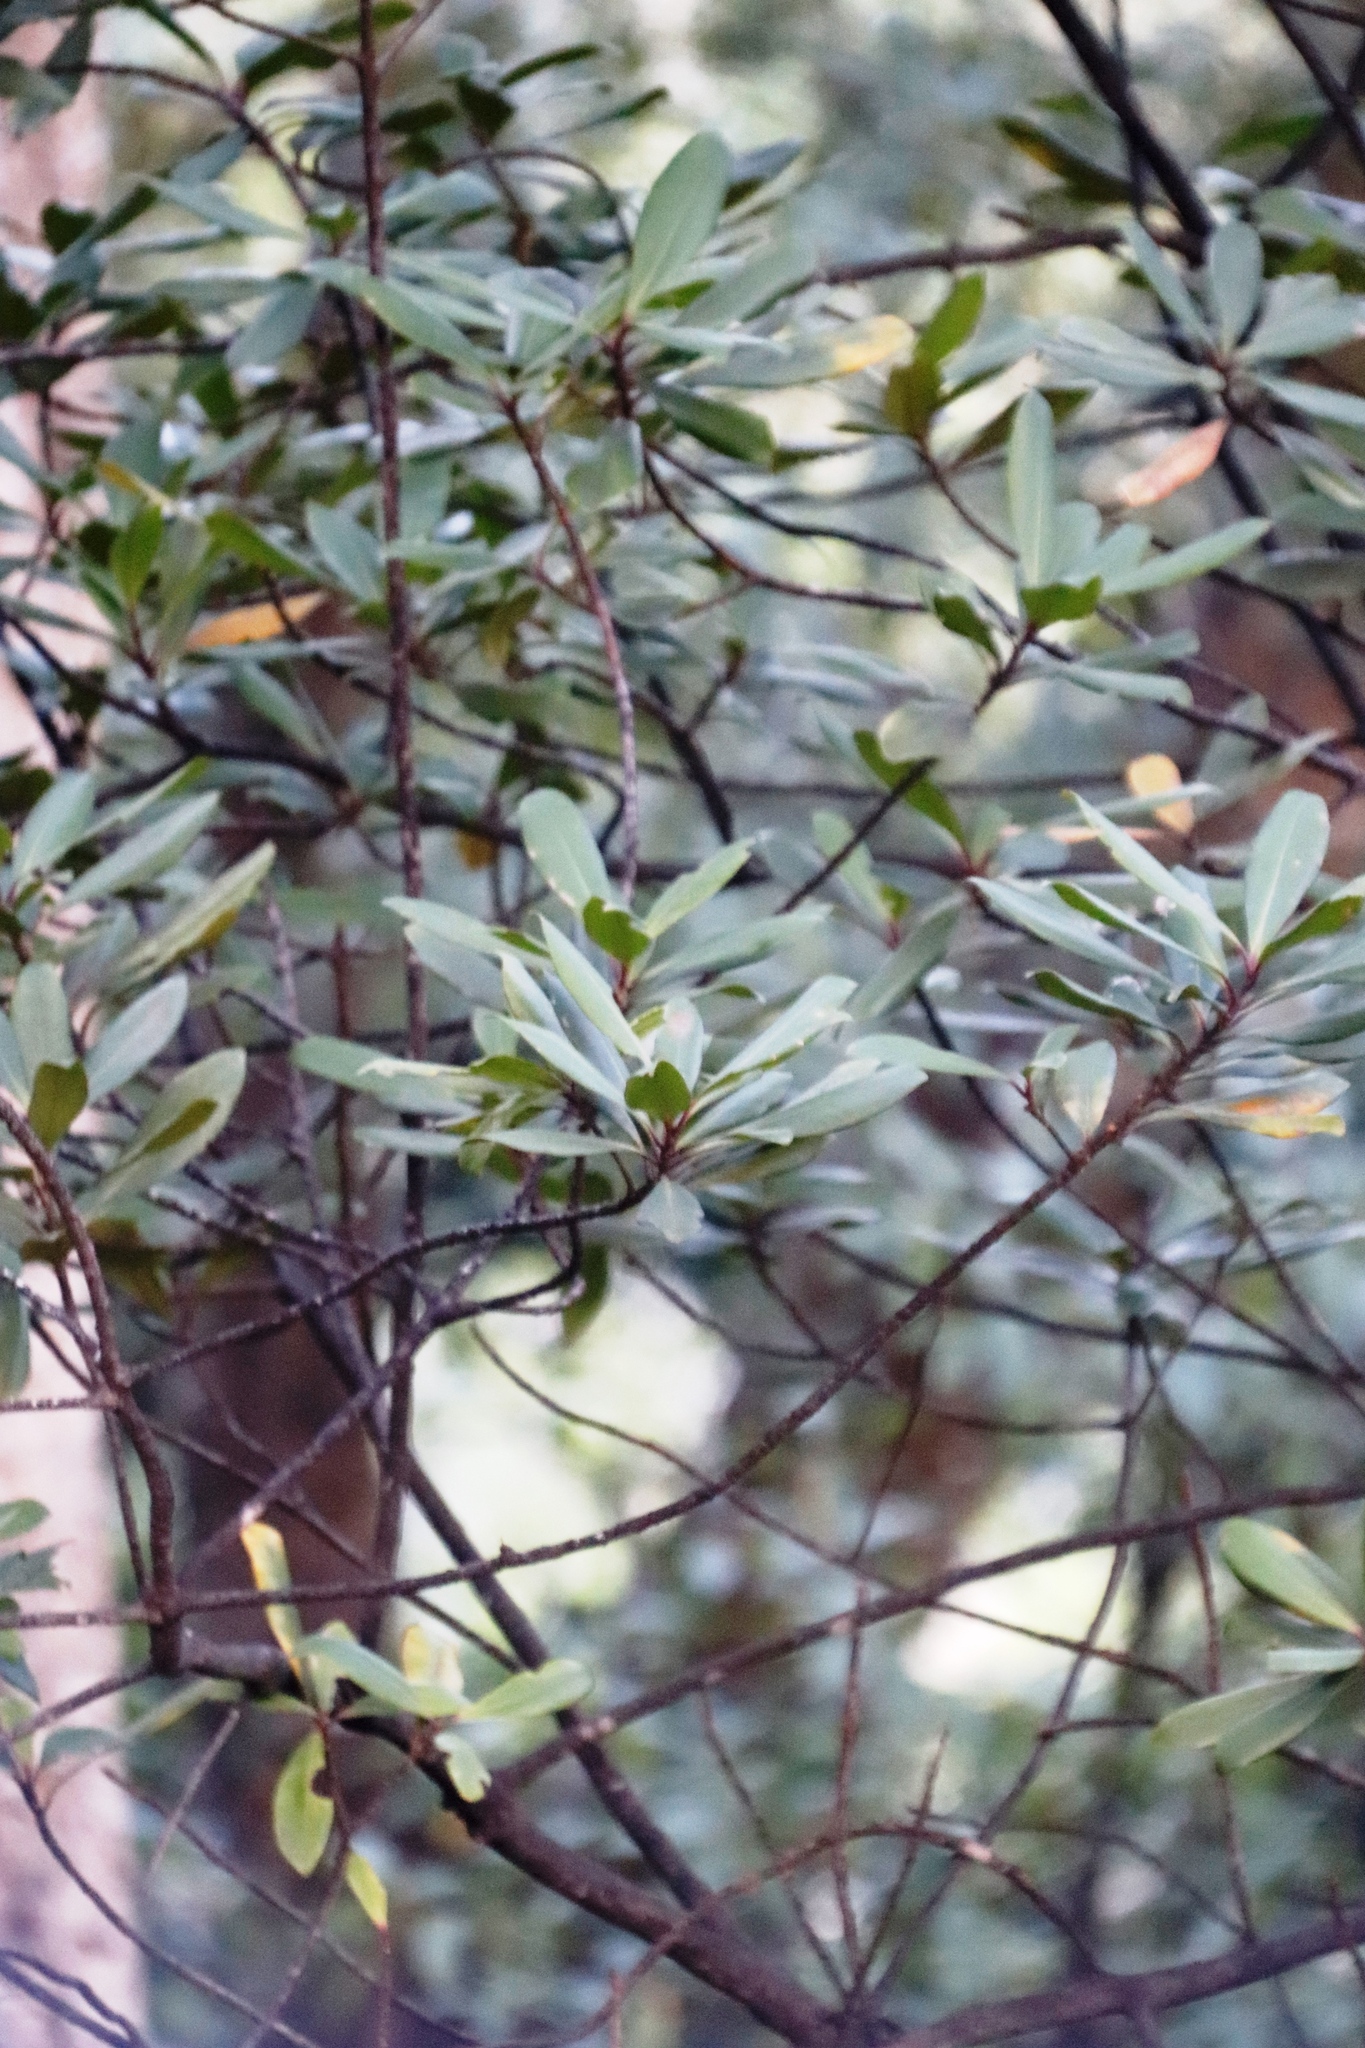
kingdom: Plantae
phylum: Tracheophyta
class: Magnoliopsida
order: Ericales
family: Primulaceae
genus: Myrsine
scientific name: Myrsine melanophloeos
